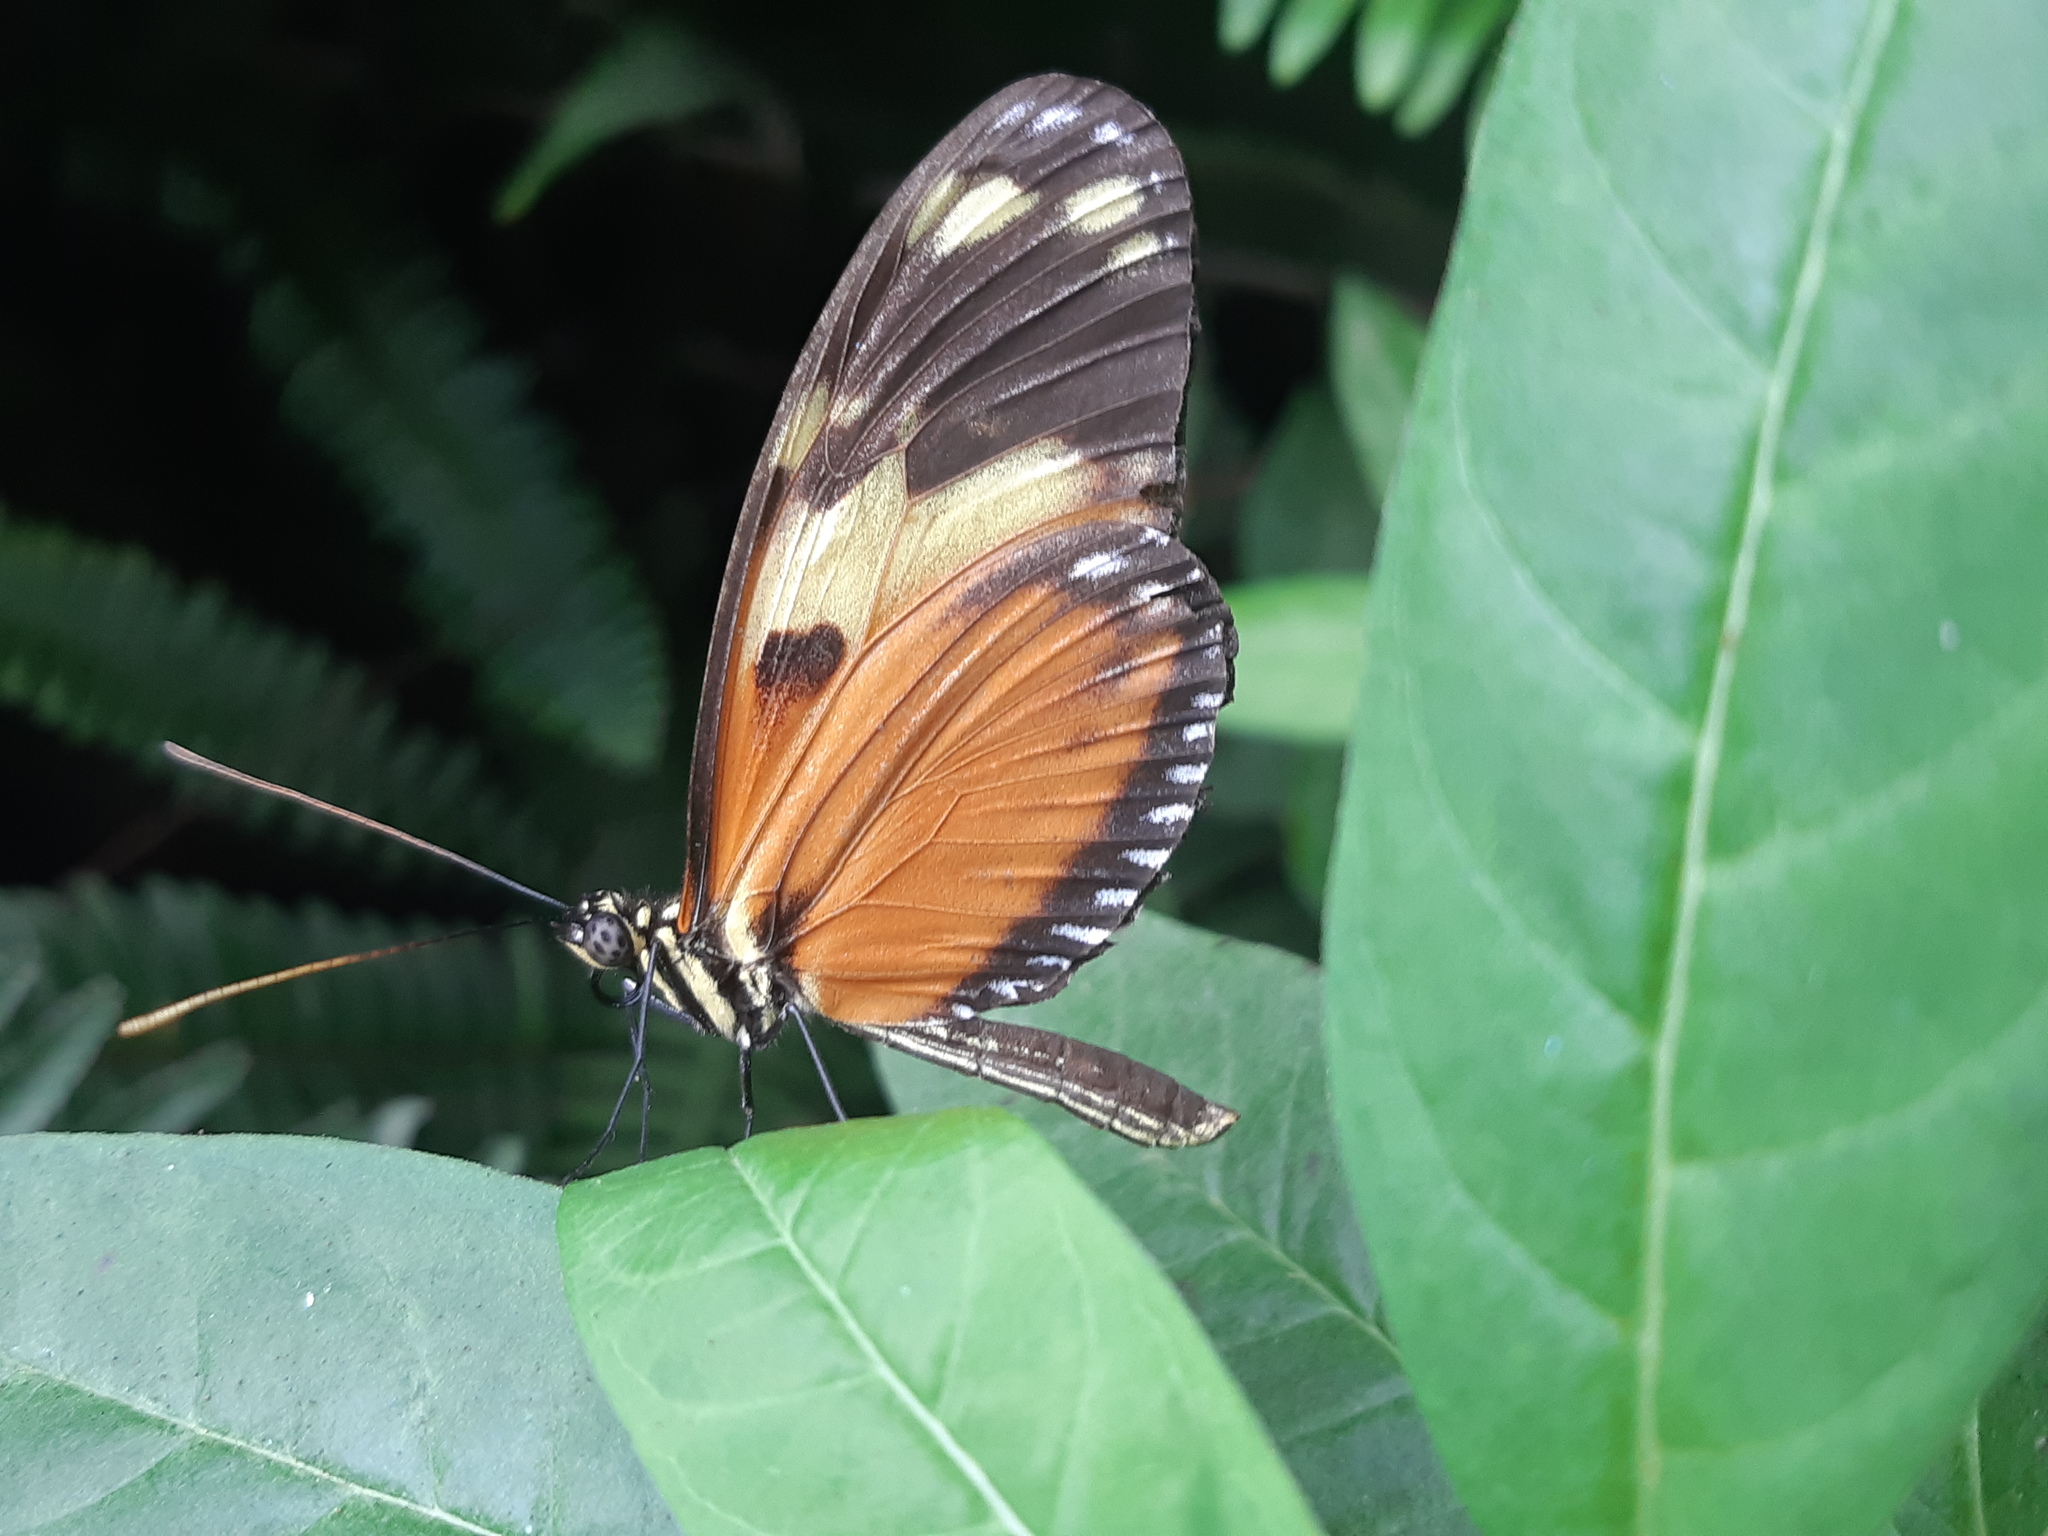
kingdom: Animalia
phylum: Arthropoda
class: Insecta
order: Lepidoptera
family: Nymphalidae
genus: Heliconius
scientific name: Heliconius ismenius
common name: Ismenius tiger
